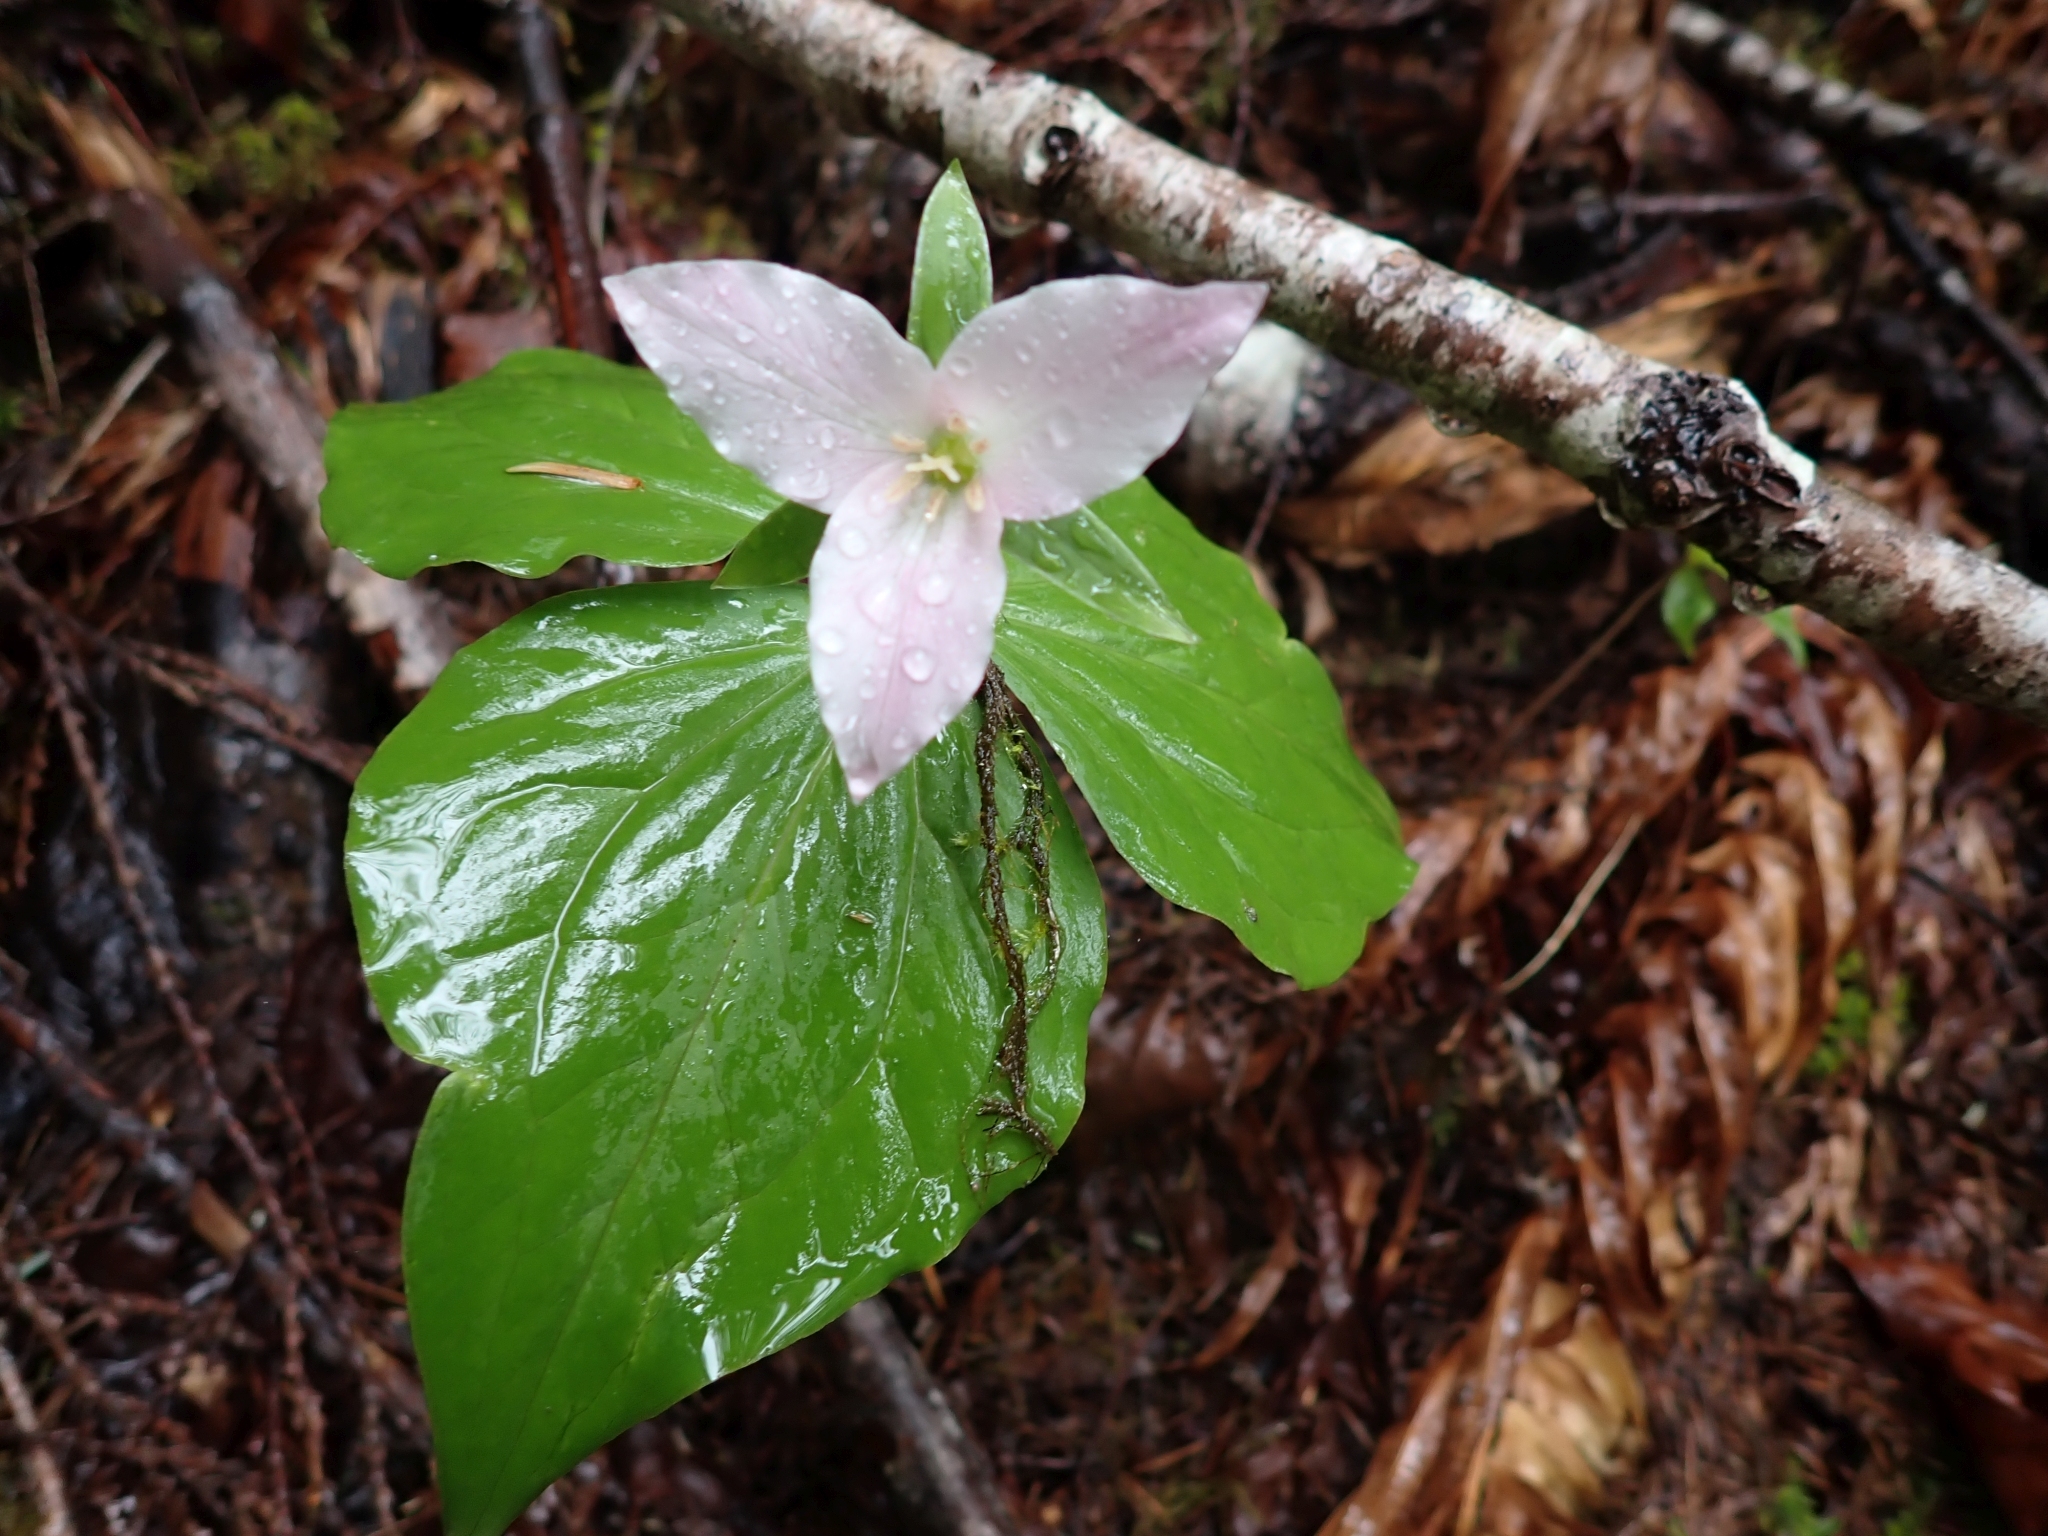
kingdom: Plantae
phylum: Tracheophyta
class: Liliopsida
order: Liliales
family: Melanthiaceae
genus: Trillium
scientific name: Trillium ovatum
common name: Pacific trillium
